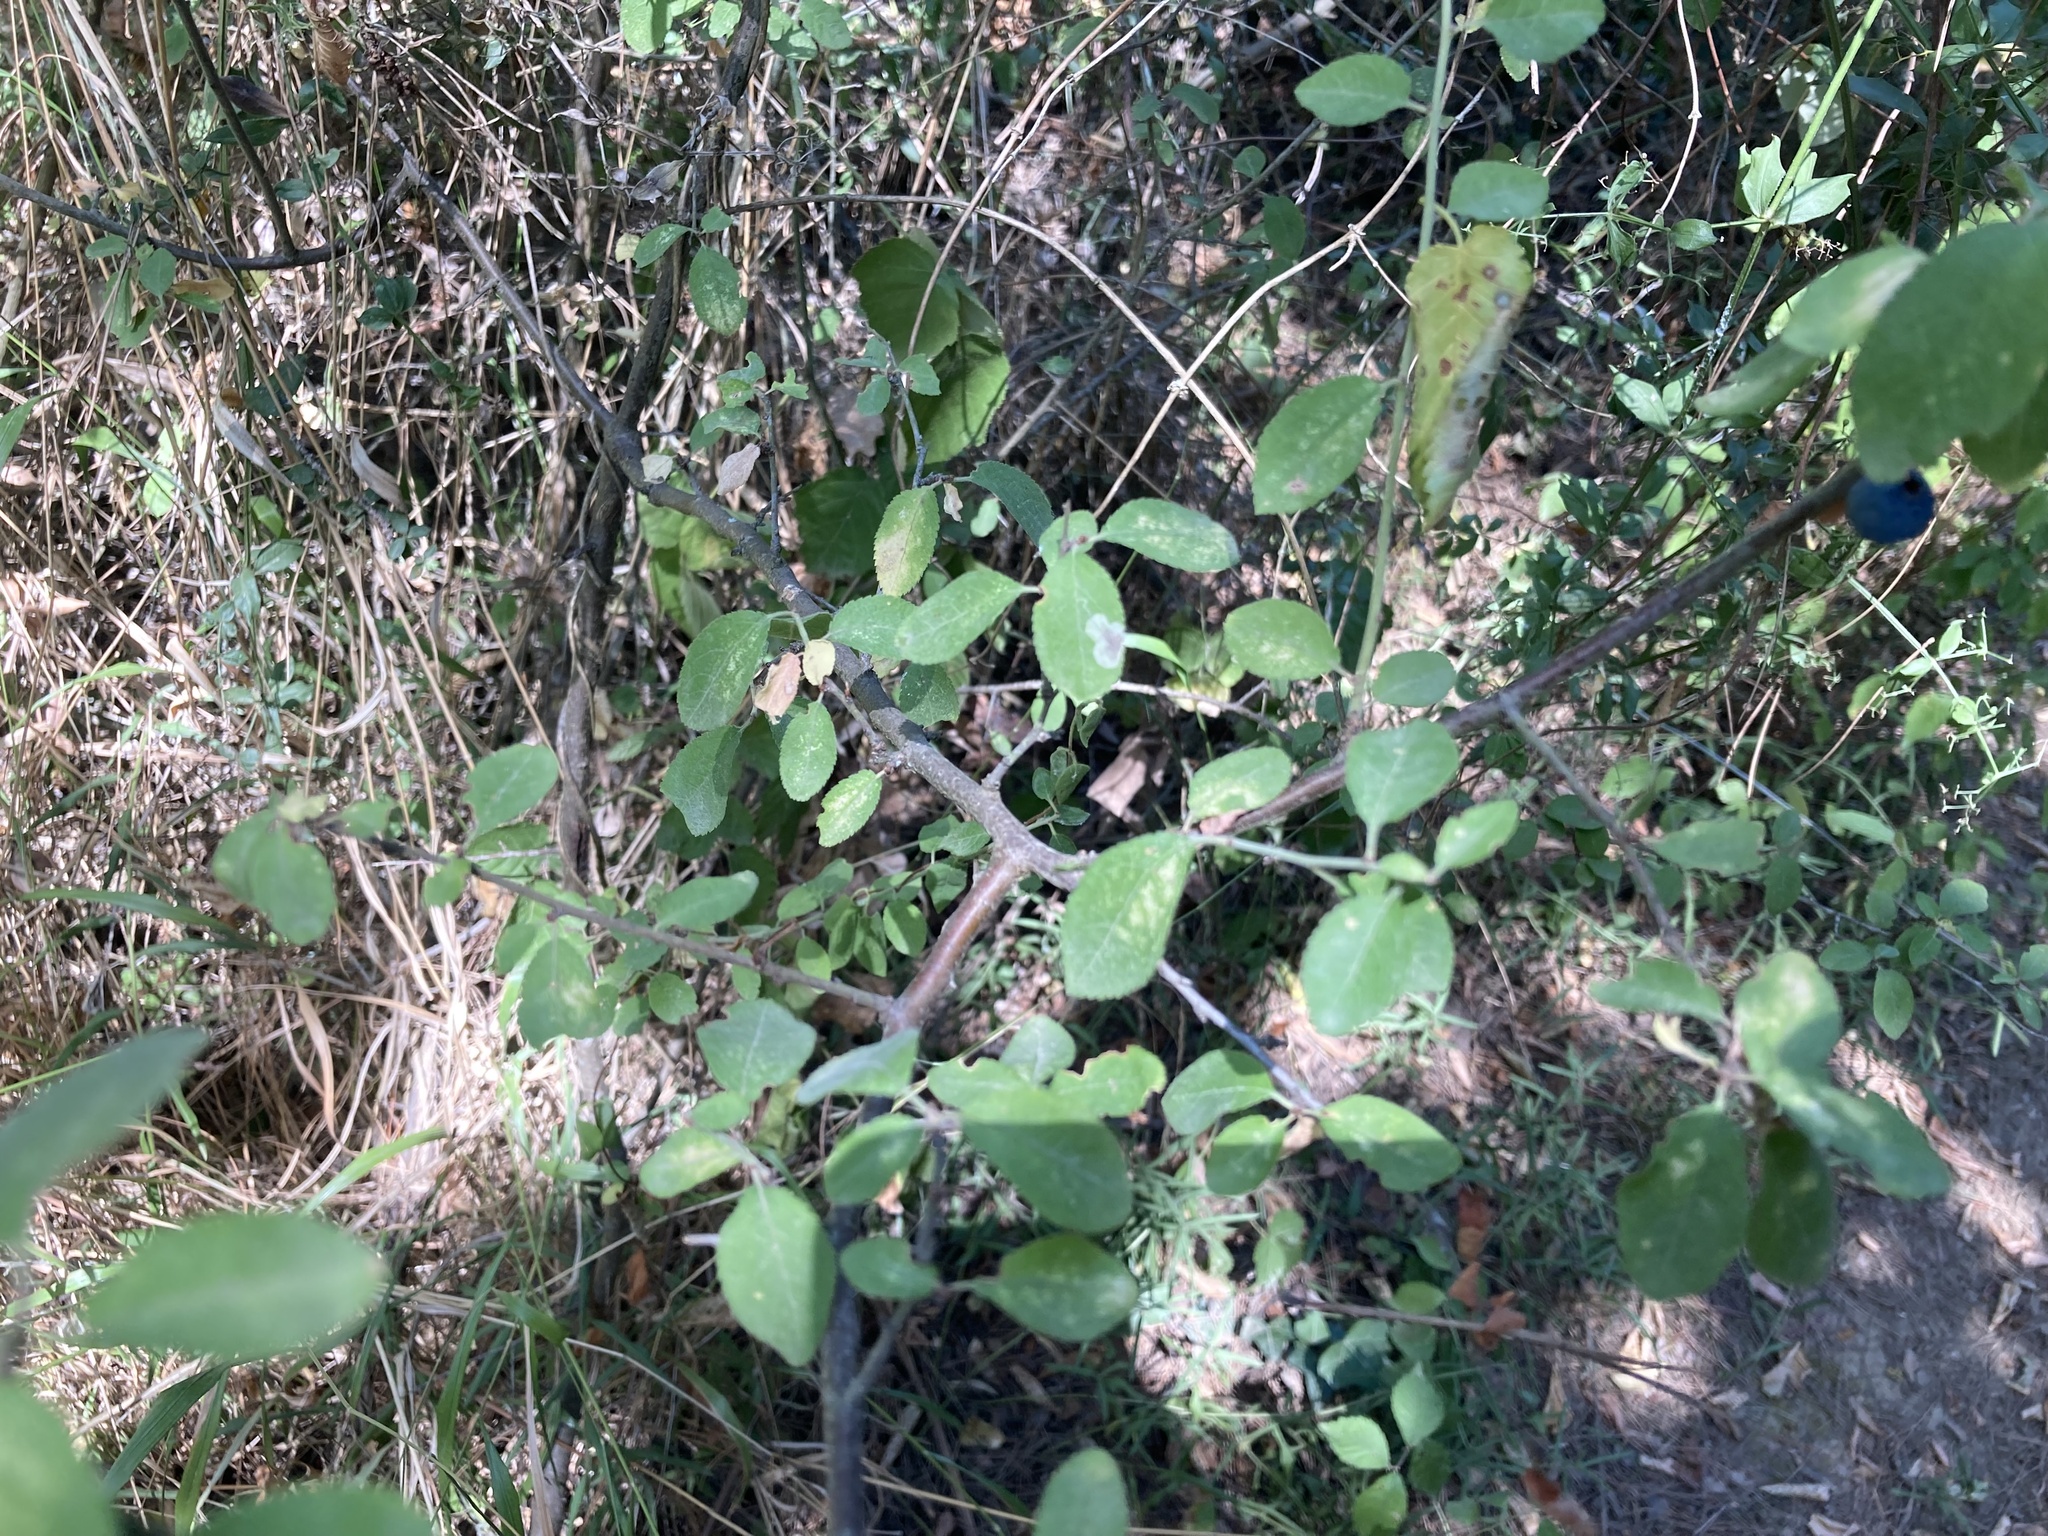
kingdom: Plantae
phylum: Tracheophyta
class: Magnoliopsida
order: Rosales
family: Rosaceae
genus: Prunus
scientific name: Prunus spinosa
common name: Blackthorn
